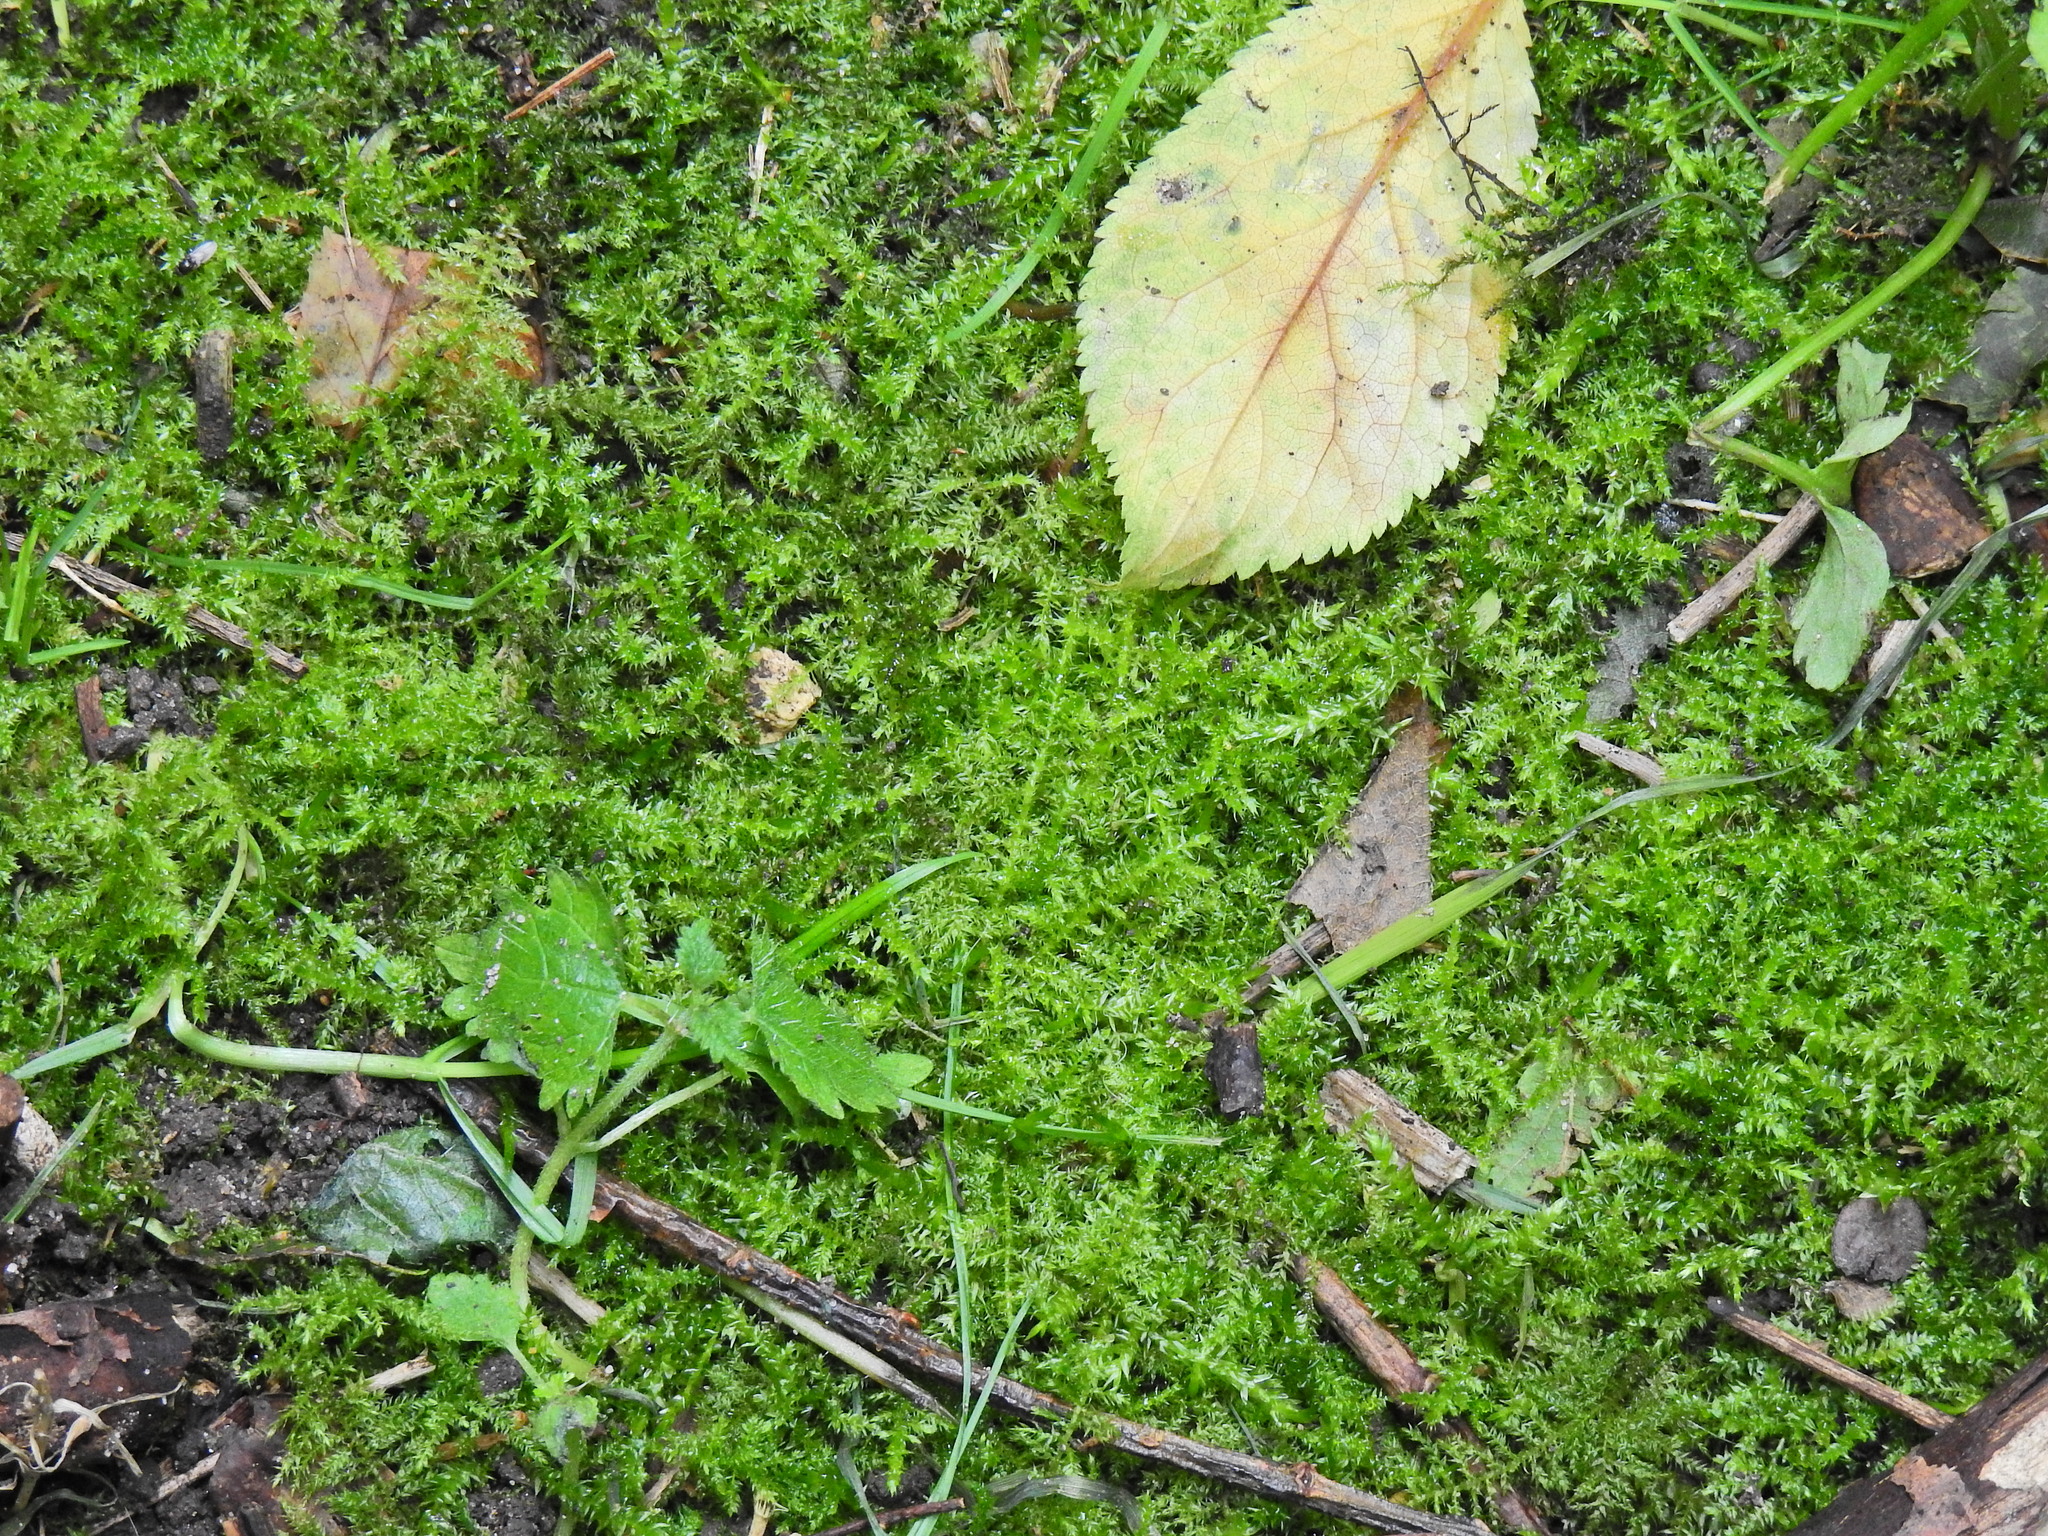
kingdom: Plantae
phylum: Bryophyta
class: Bryopsida
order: Hypnales
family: Brachytheciaceae
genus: Kindbergia
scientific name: Kindbergia praelonga
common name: Slender beaked moss
